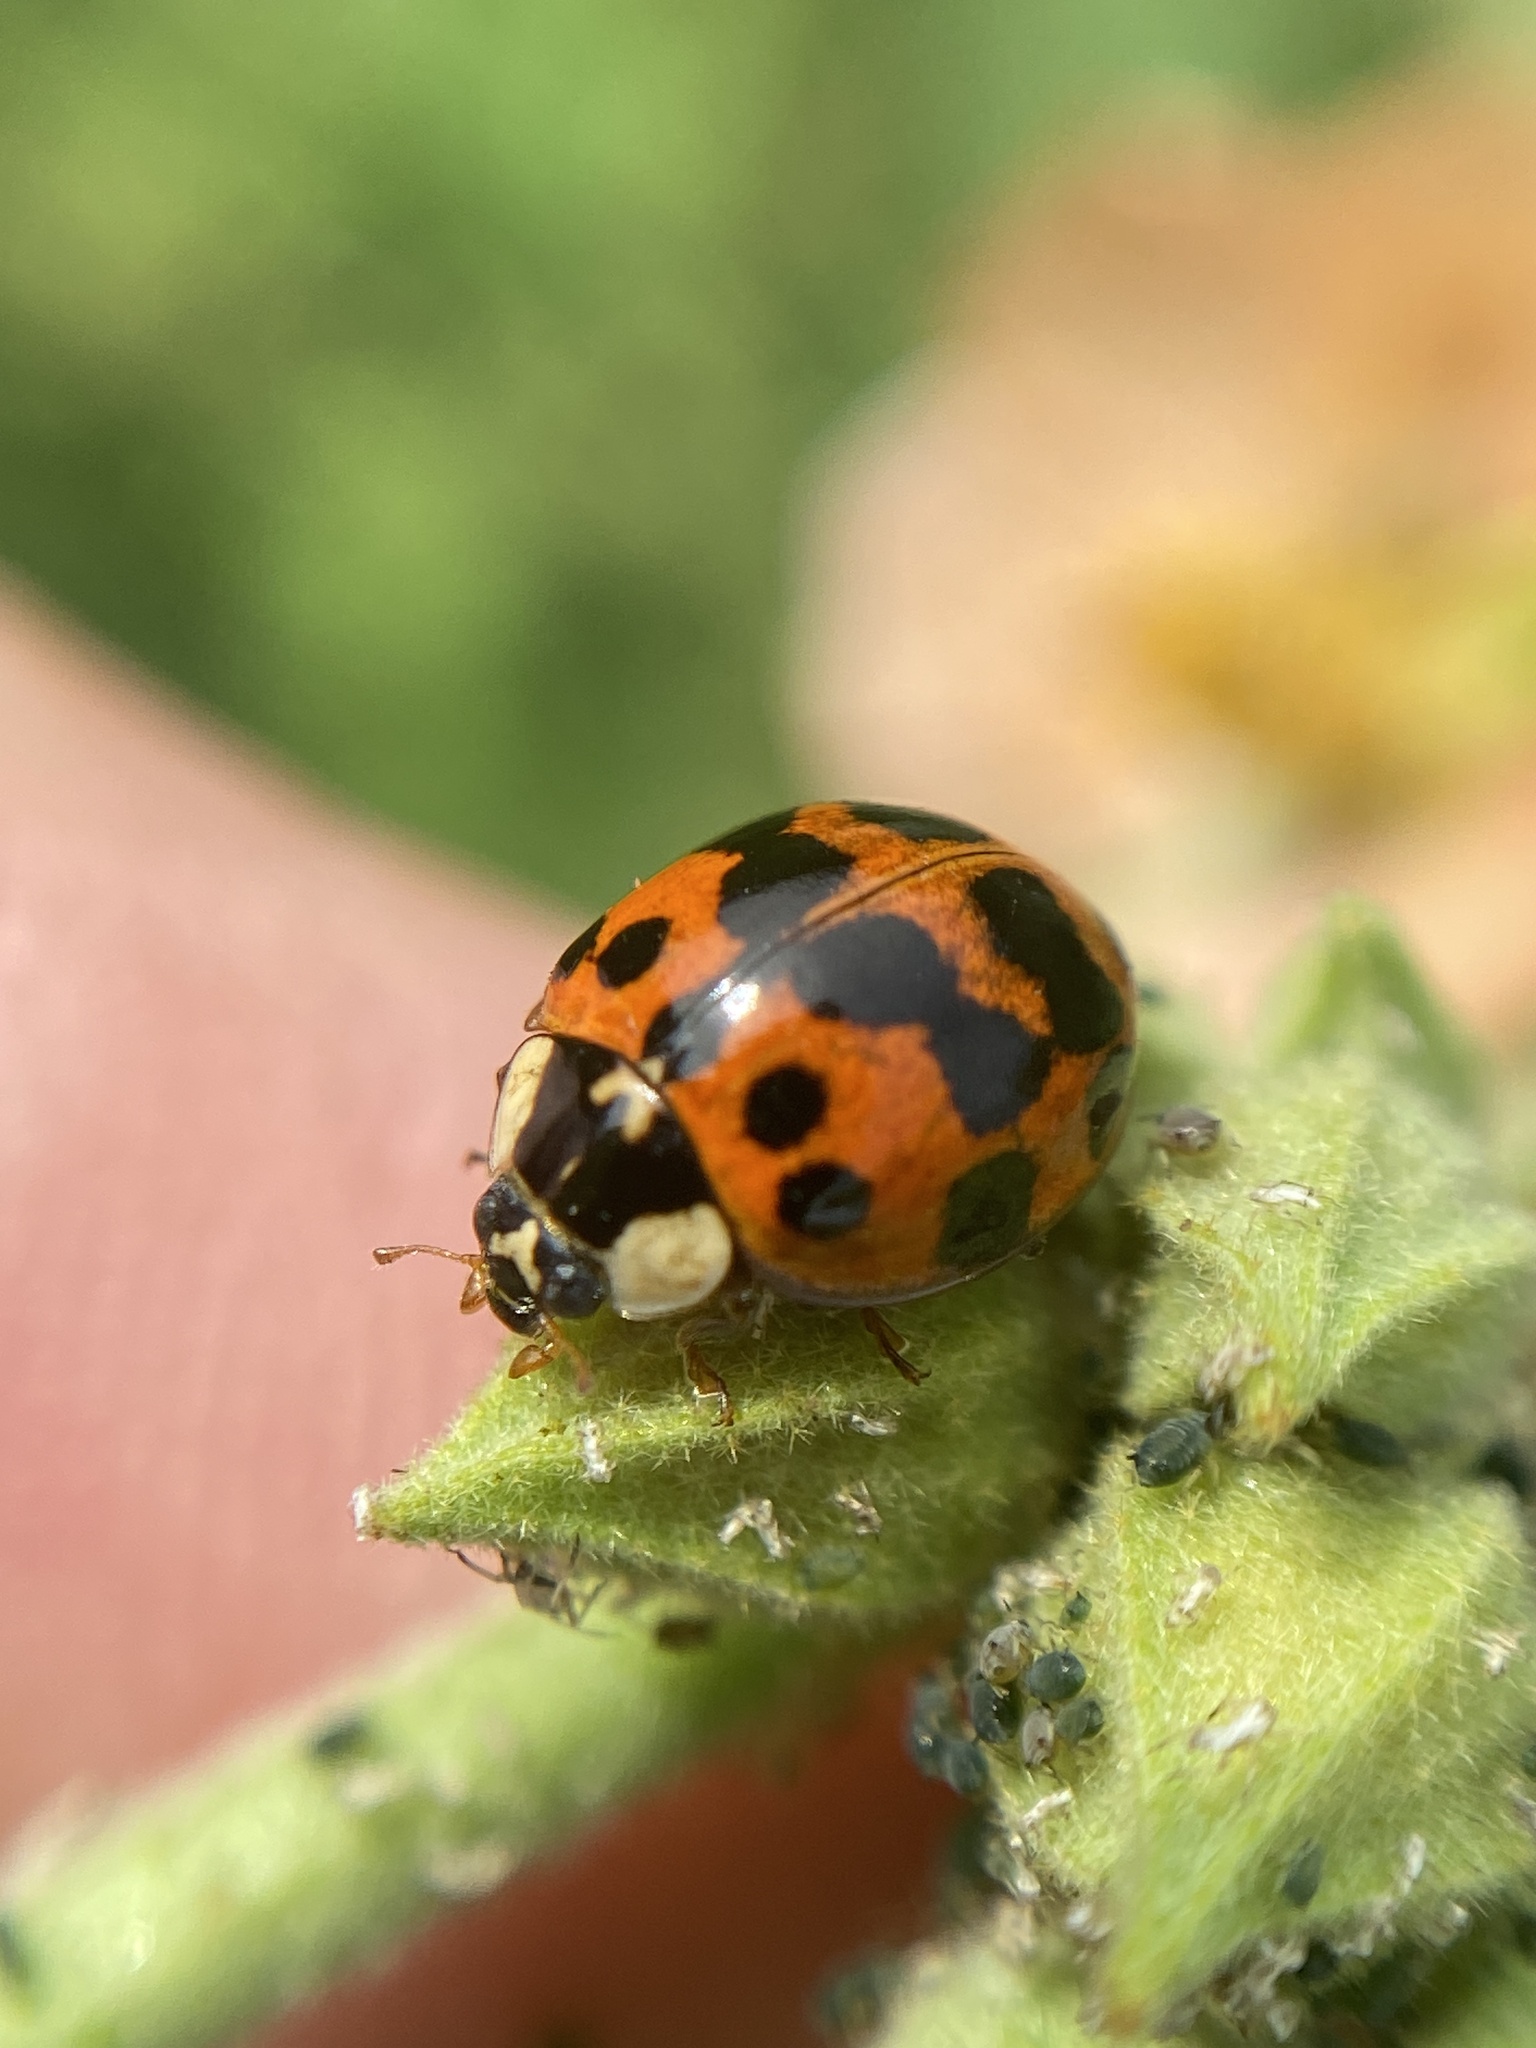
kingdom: Animalia
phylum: Arthropoda
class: Insecta
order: Coleoptera
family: Coccinellidae
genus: Harmonia
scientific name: Harmonia axyridis
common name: Harlequin ladybird
